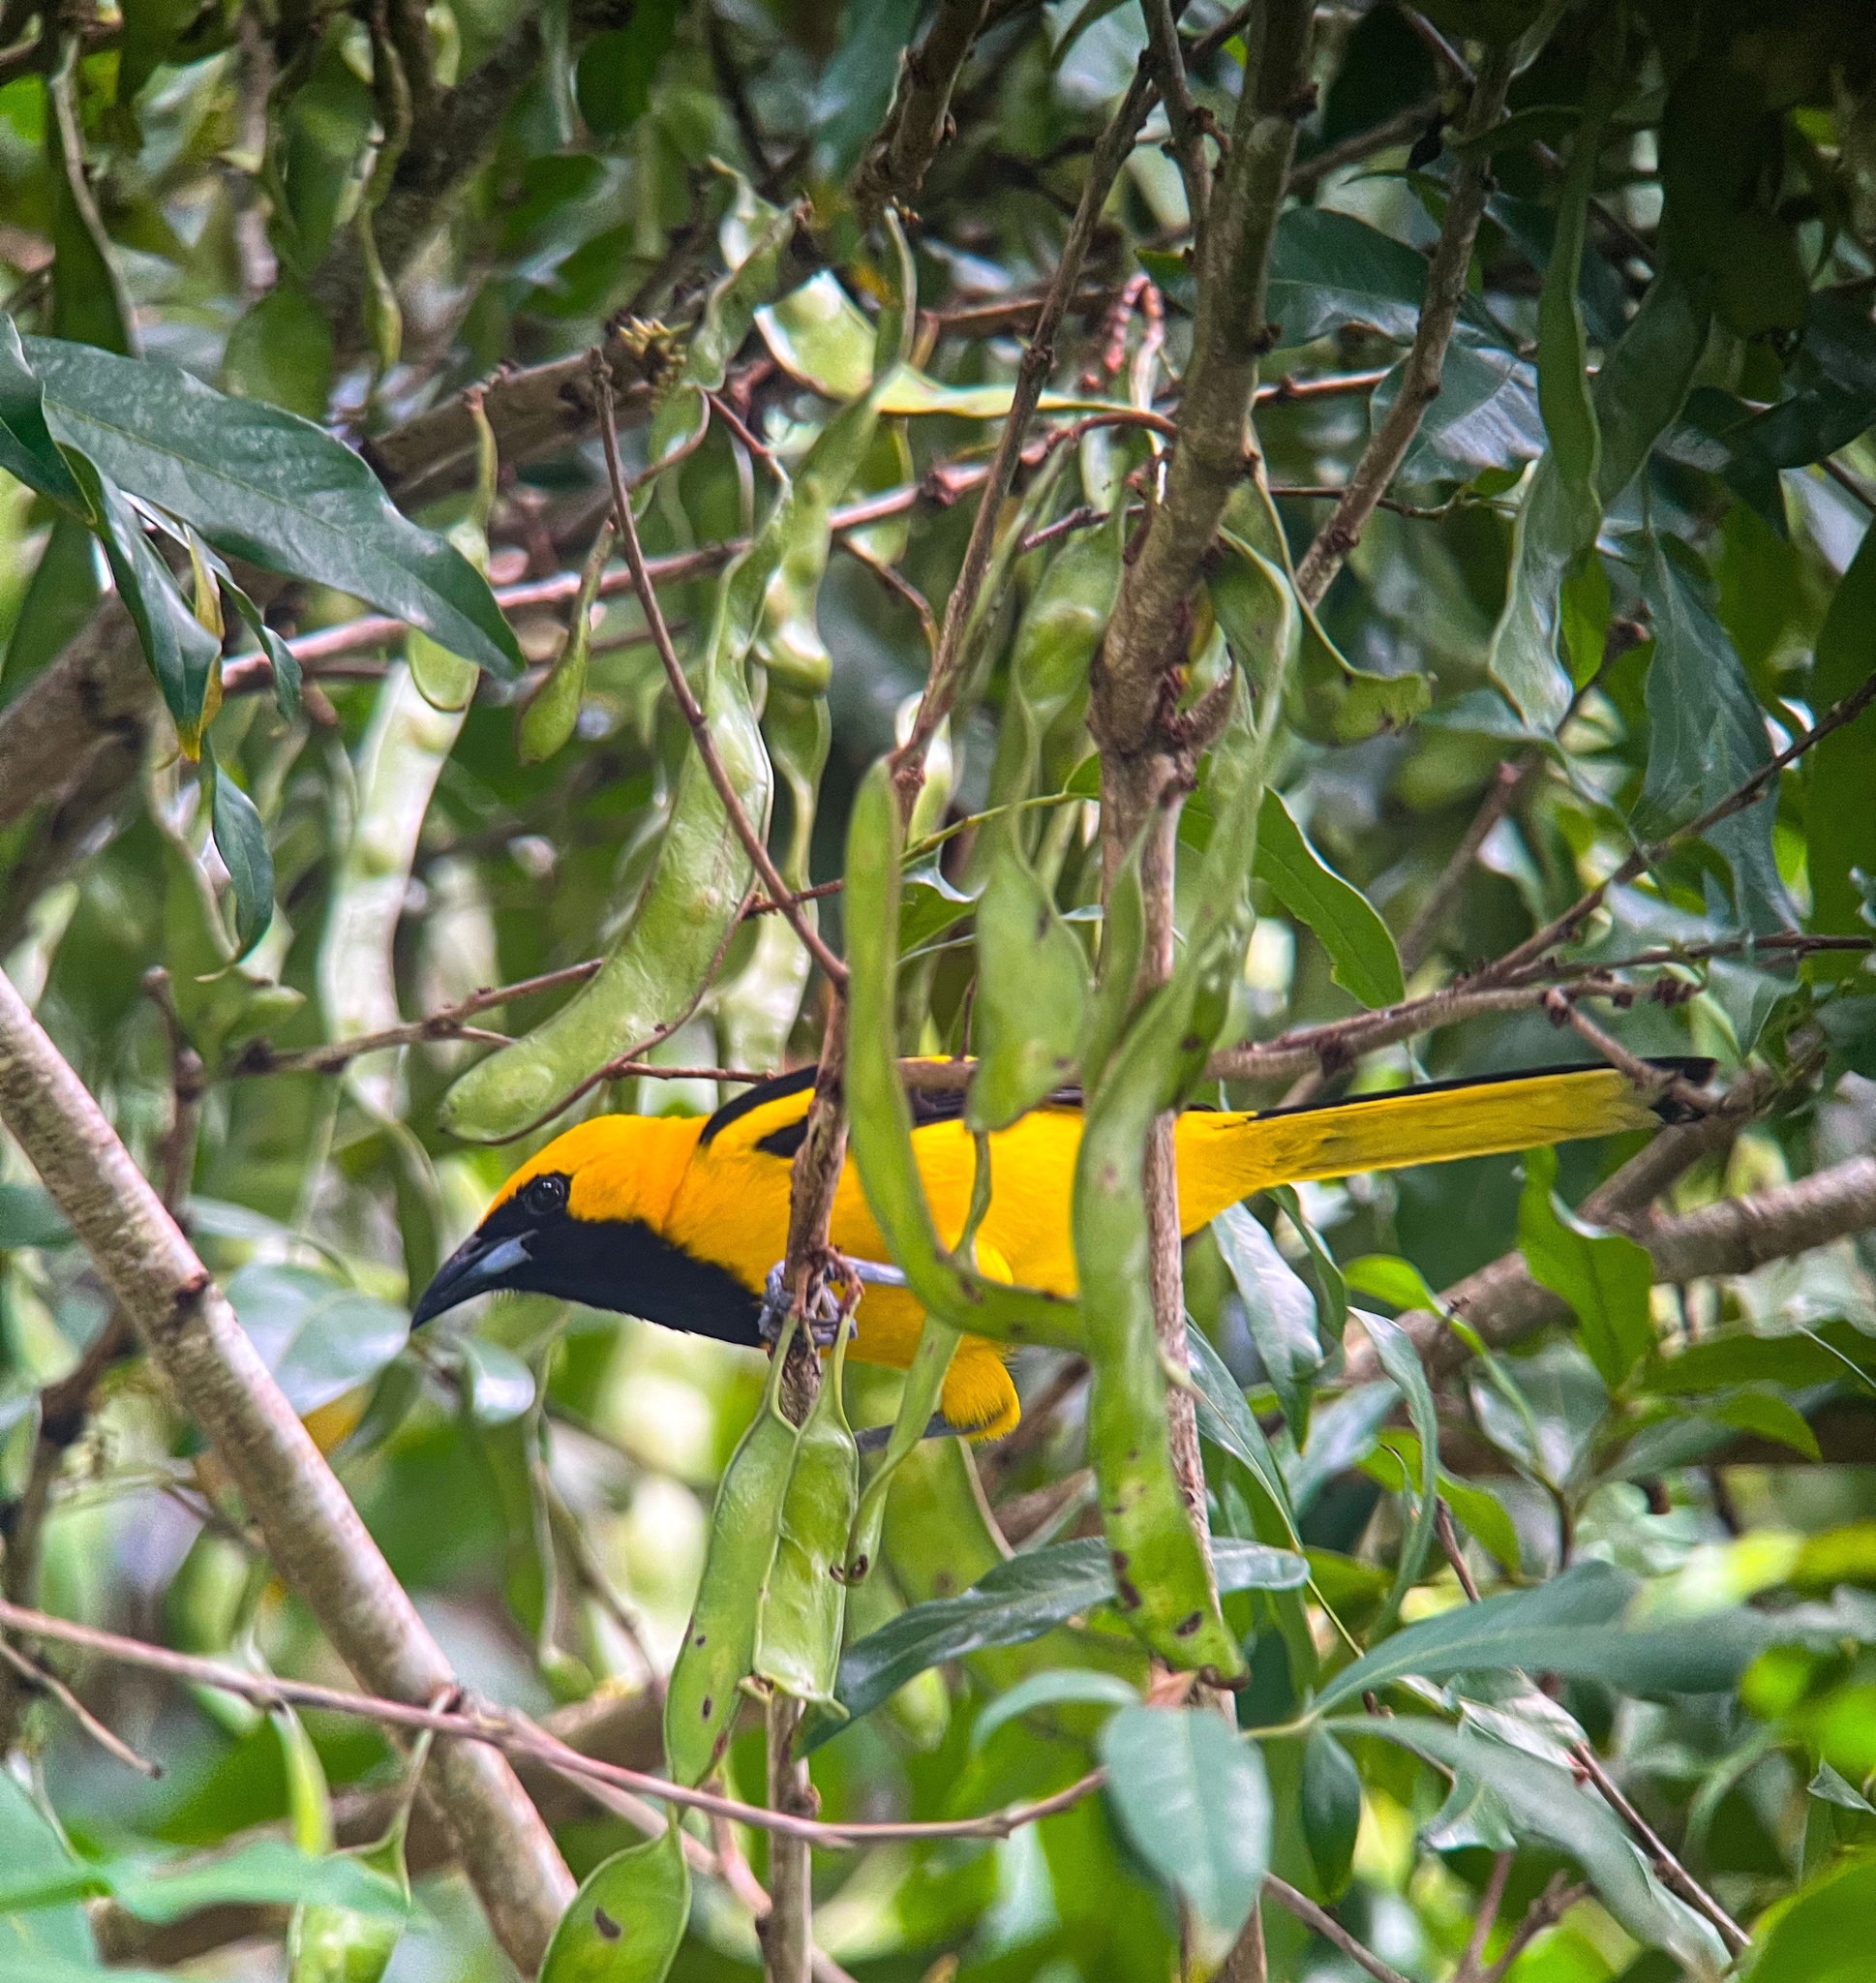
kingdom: Animalia
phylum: Chordata
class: Aves
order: Passeriformes
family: Icteridae
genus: Icterus
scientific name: Icterus mesomelas
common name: Yellow-tailed oriole
